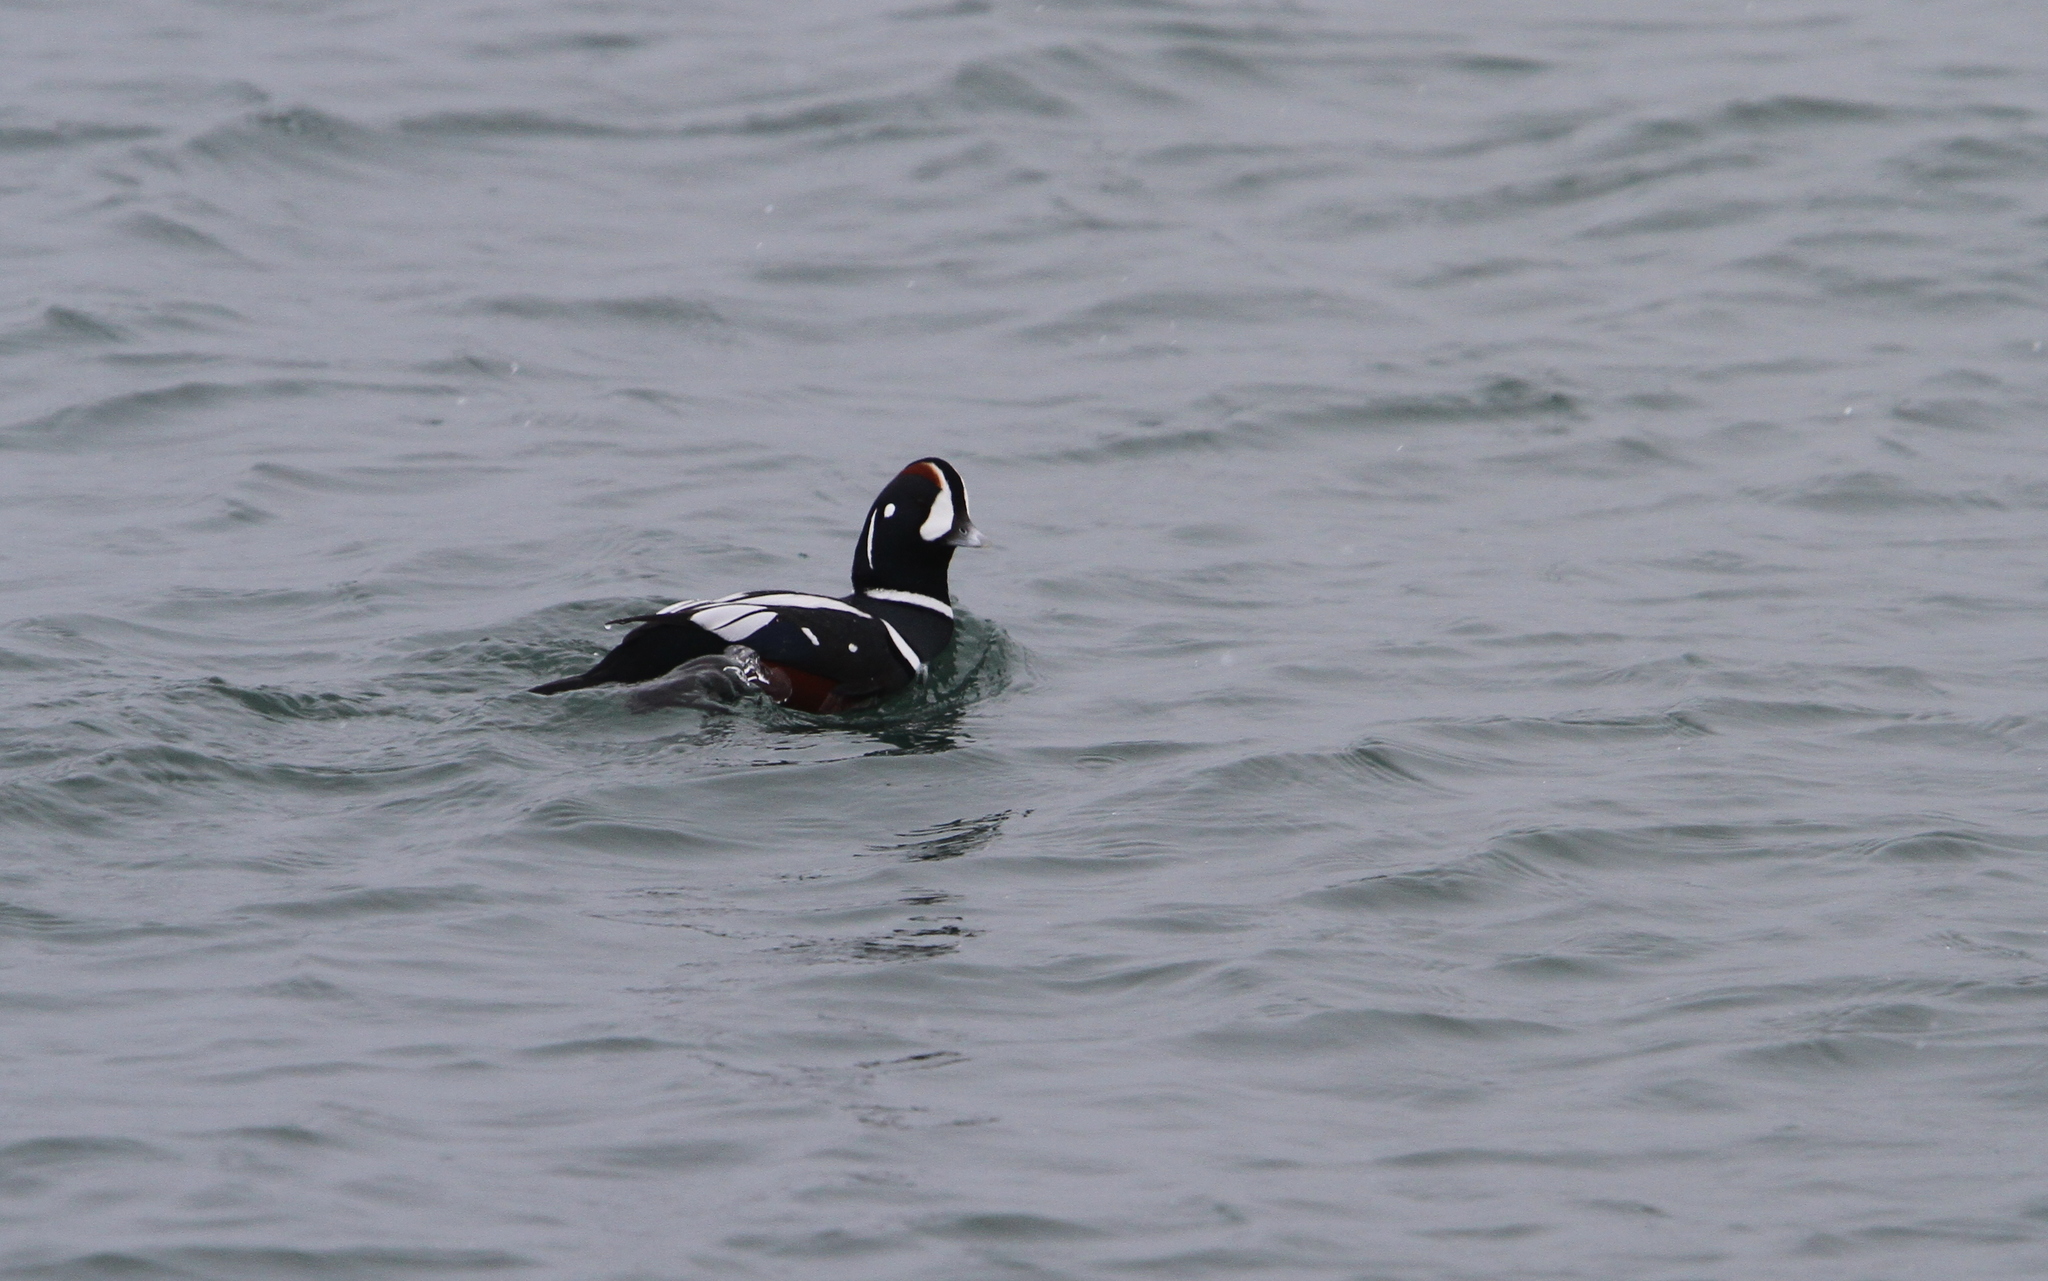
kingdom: Animalia
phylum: Chordata
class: Aves
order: Anseriformes
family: Anatidae
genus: Histrionicus
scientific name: Histrionicus histrionicus
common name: Harlequin duck
